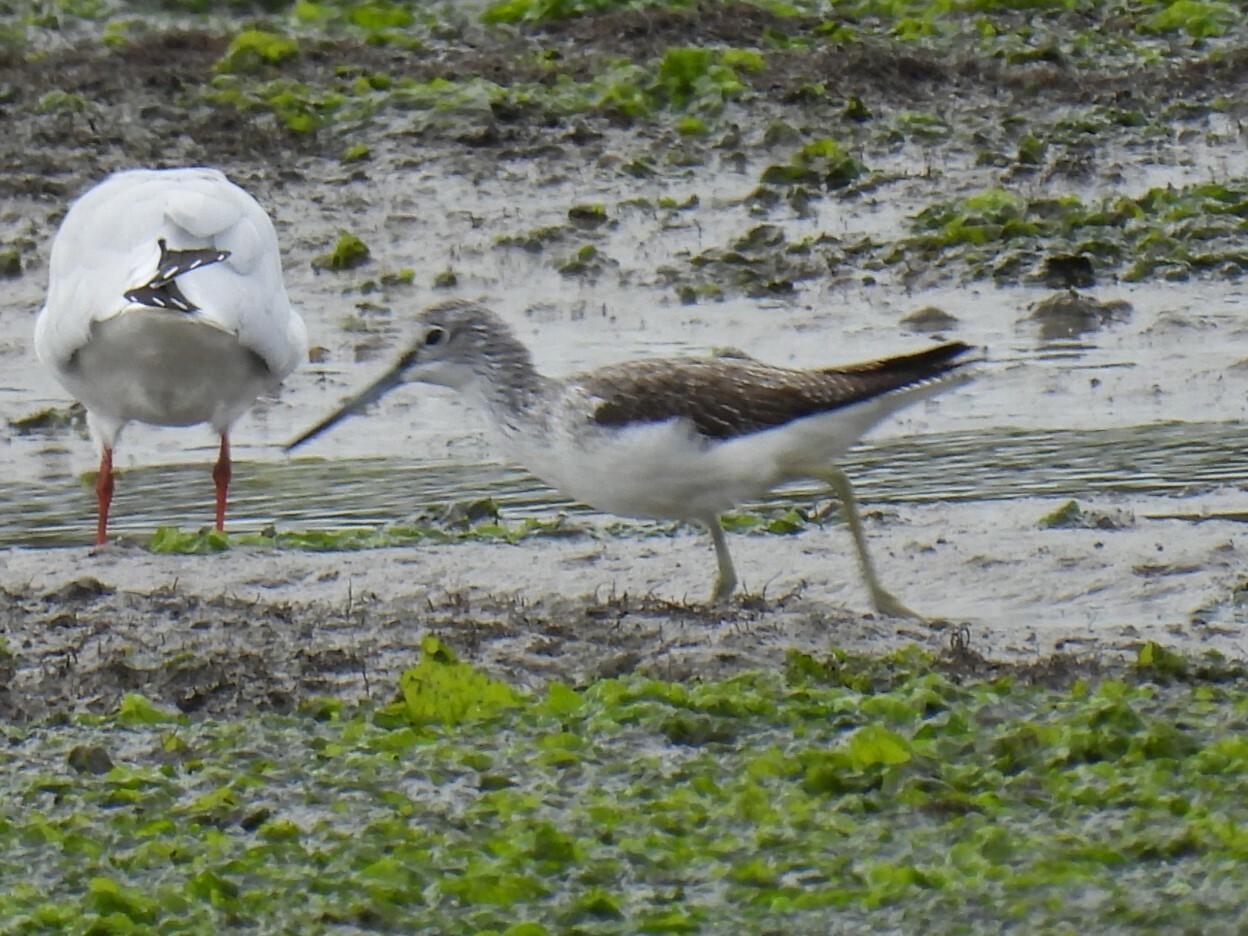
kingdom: Animalia
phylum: Chordata
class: Aves
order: Charadriiformes
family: Scolopacidae
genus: Tringa
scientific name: Tringa nebularia
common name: Common greenshank
